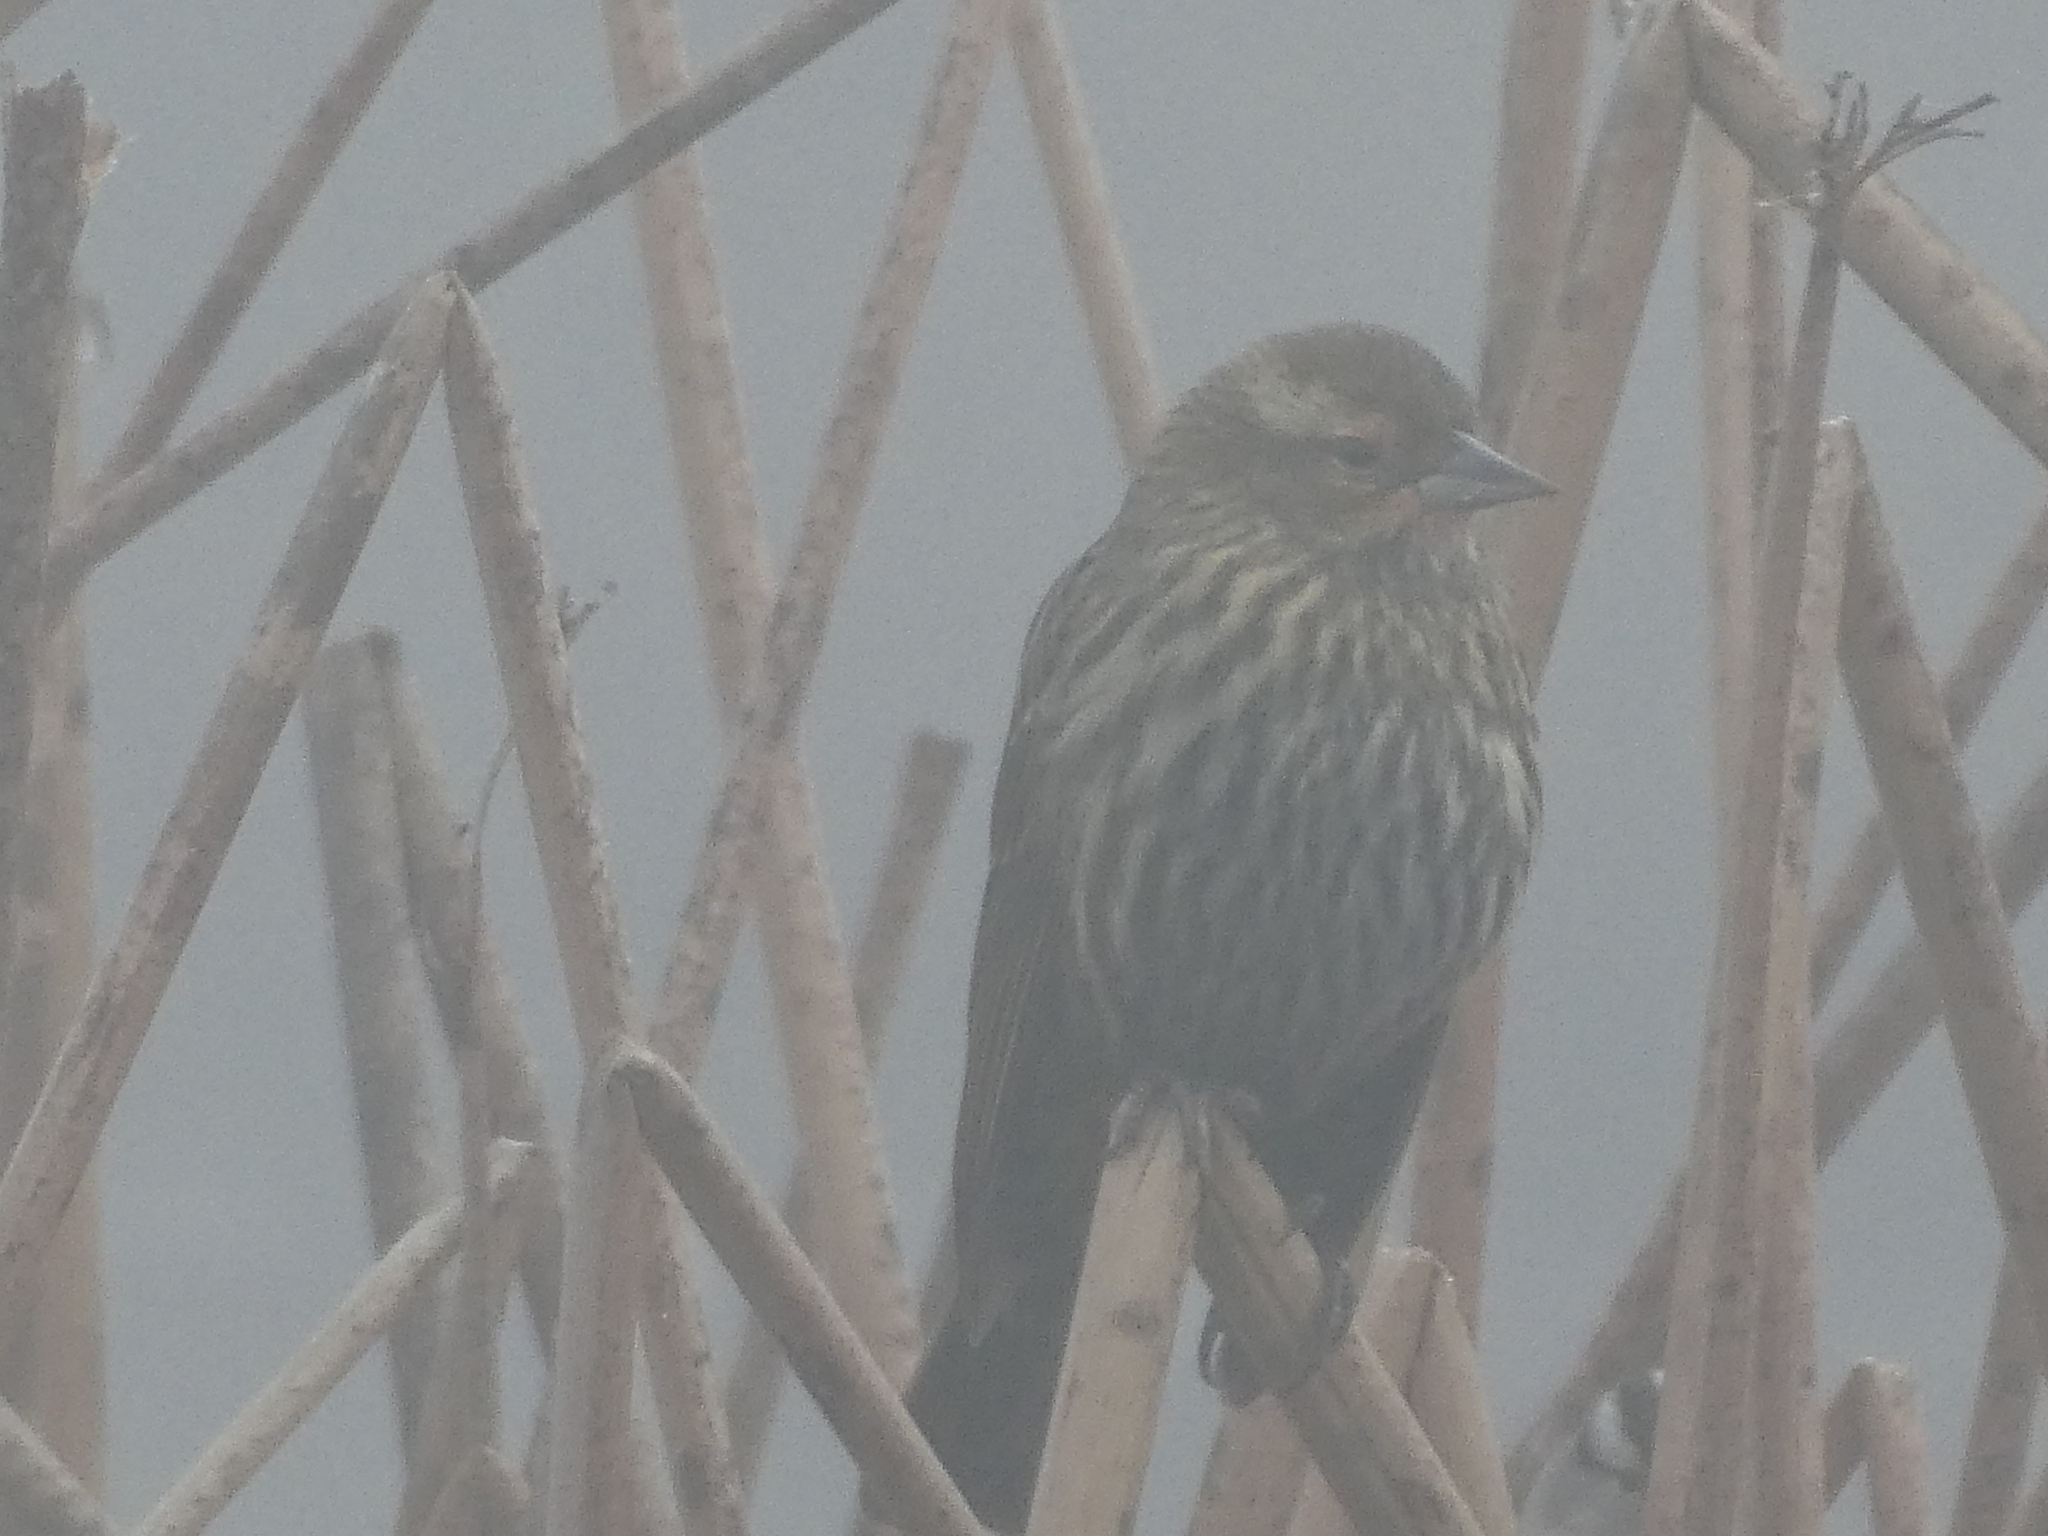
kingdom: Animalia
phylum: Chordata
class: Aves
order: Passeriformes
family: Icteridae
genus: Agelaius
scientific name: Agelaius phoeniceus
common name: Red-winged blackbird
